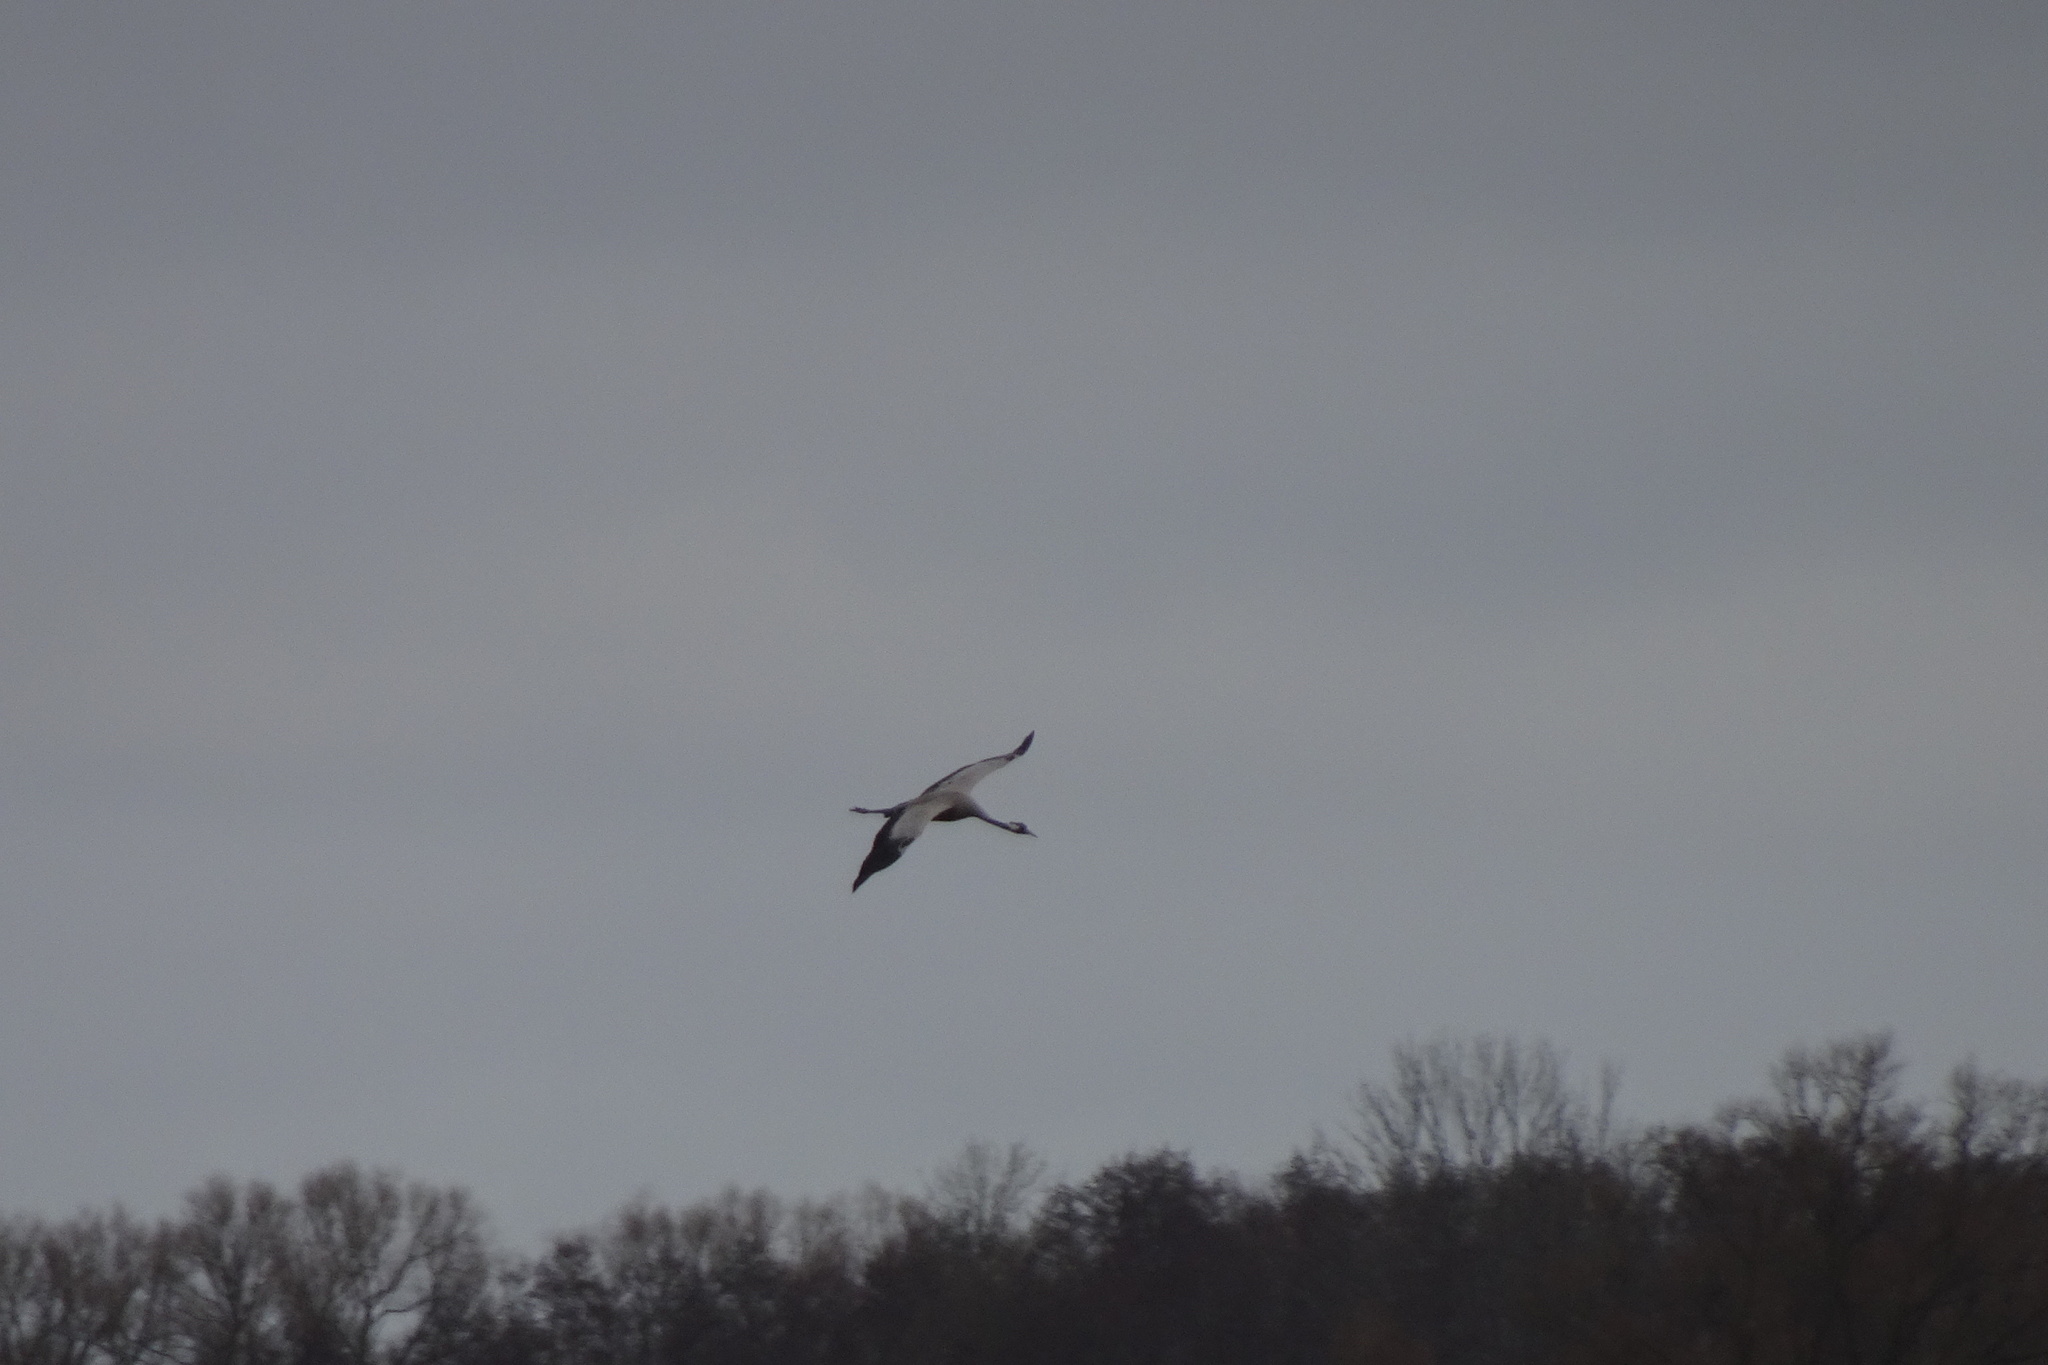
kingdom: Animalia
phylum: Chordata
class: Aves
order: Gruiformes
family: Gruidae
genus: Grus
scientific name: Grus grus
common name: Common crane
